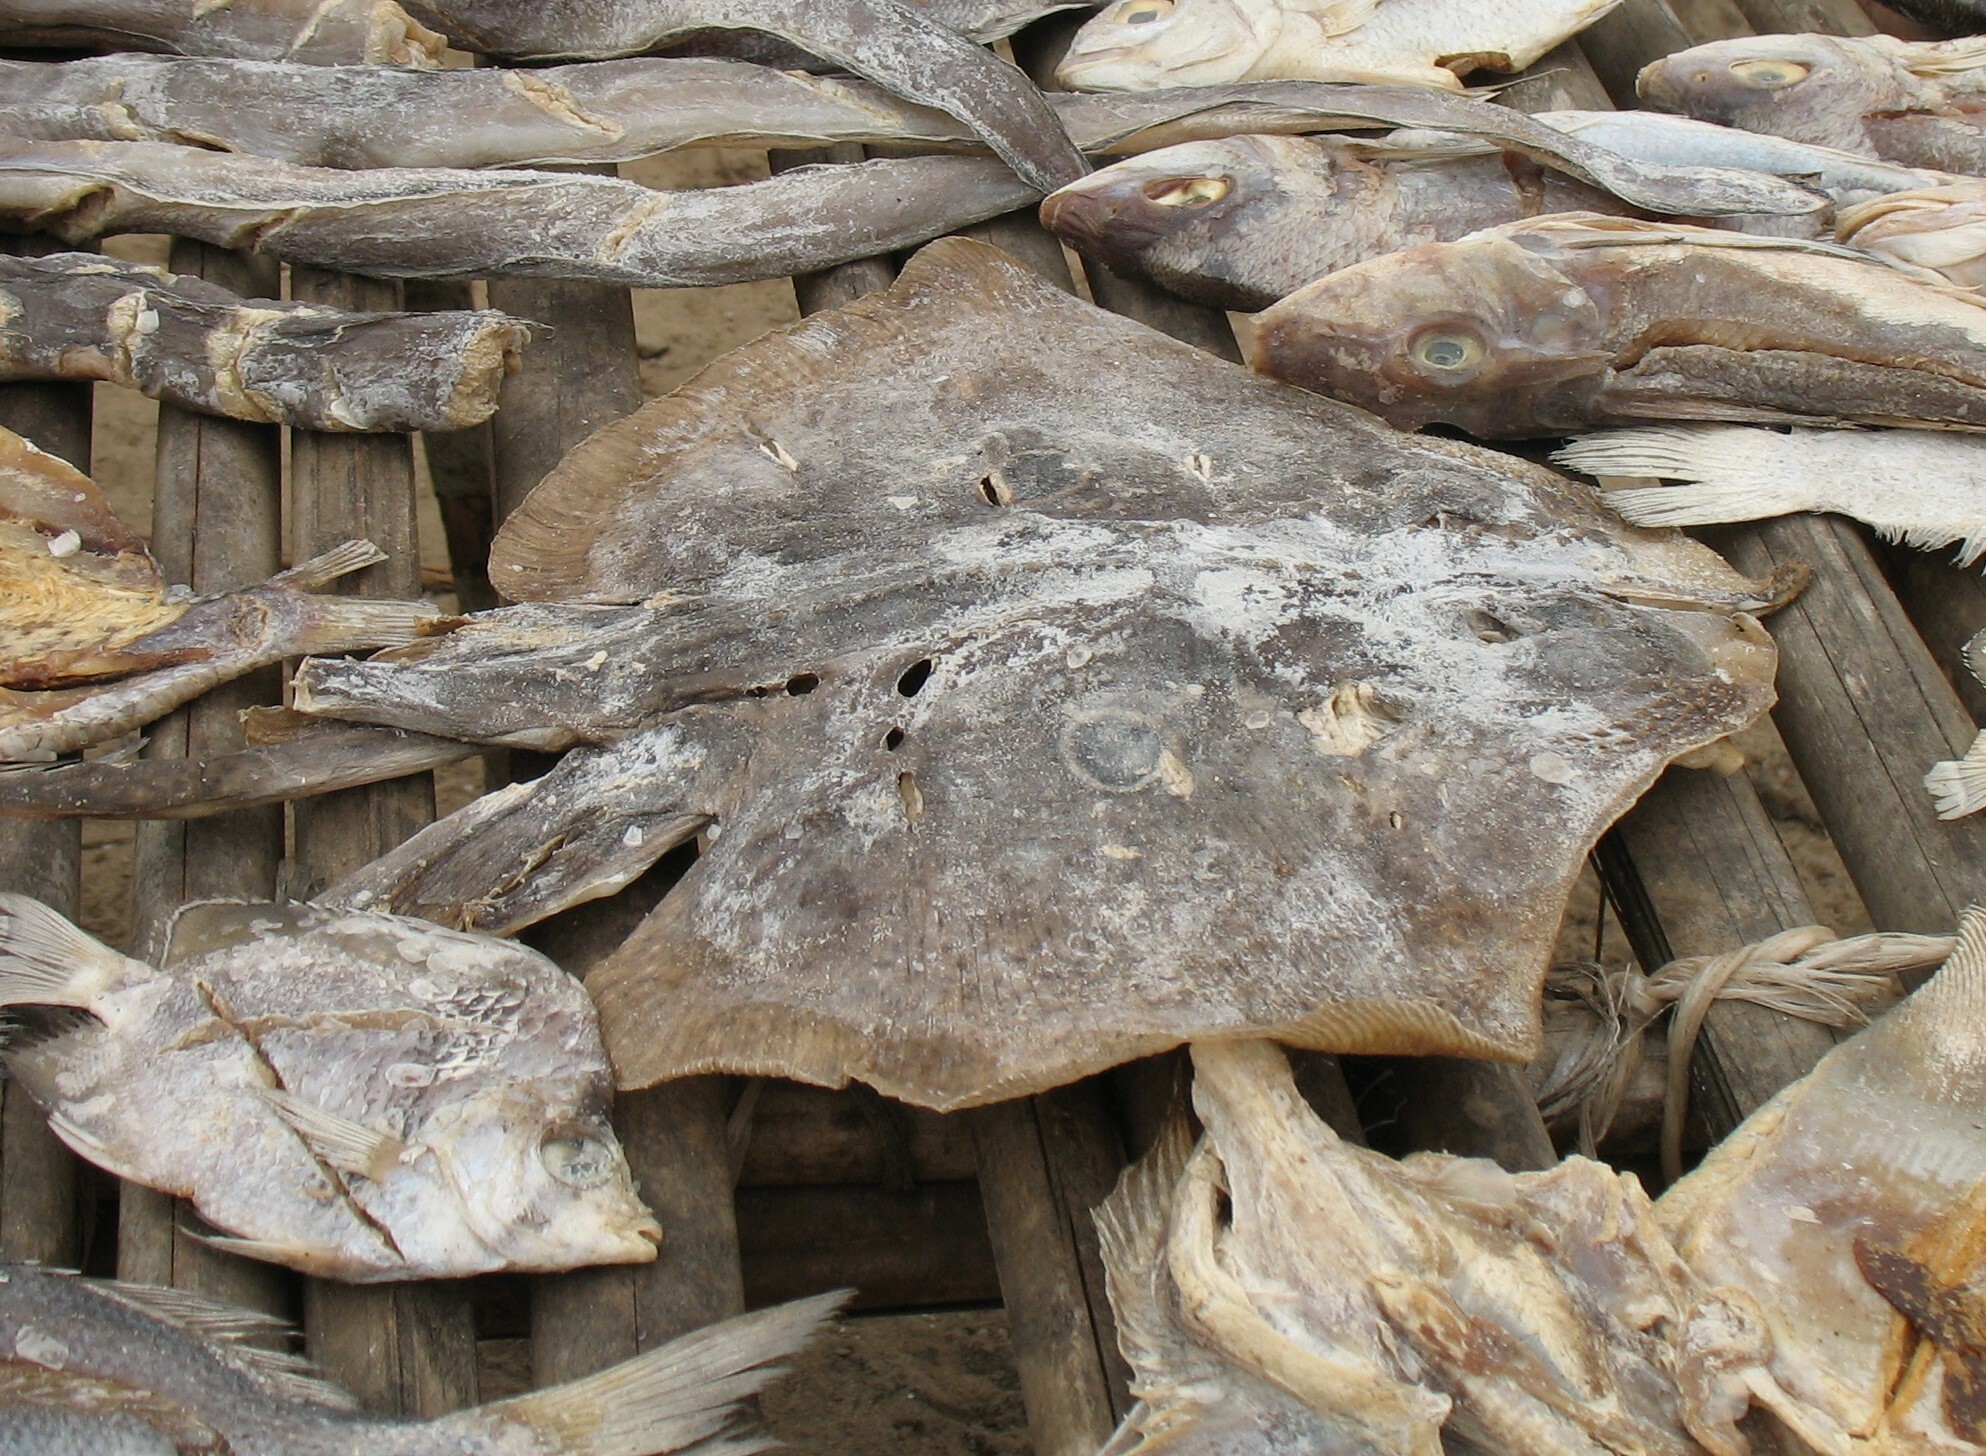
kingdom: Animalia
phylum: Chordata
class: Elasmobranchii
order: Rajiformes
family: Rajidae
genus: Raja
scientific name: Raja miraletus
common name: Brown ray
